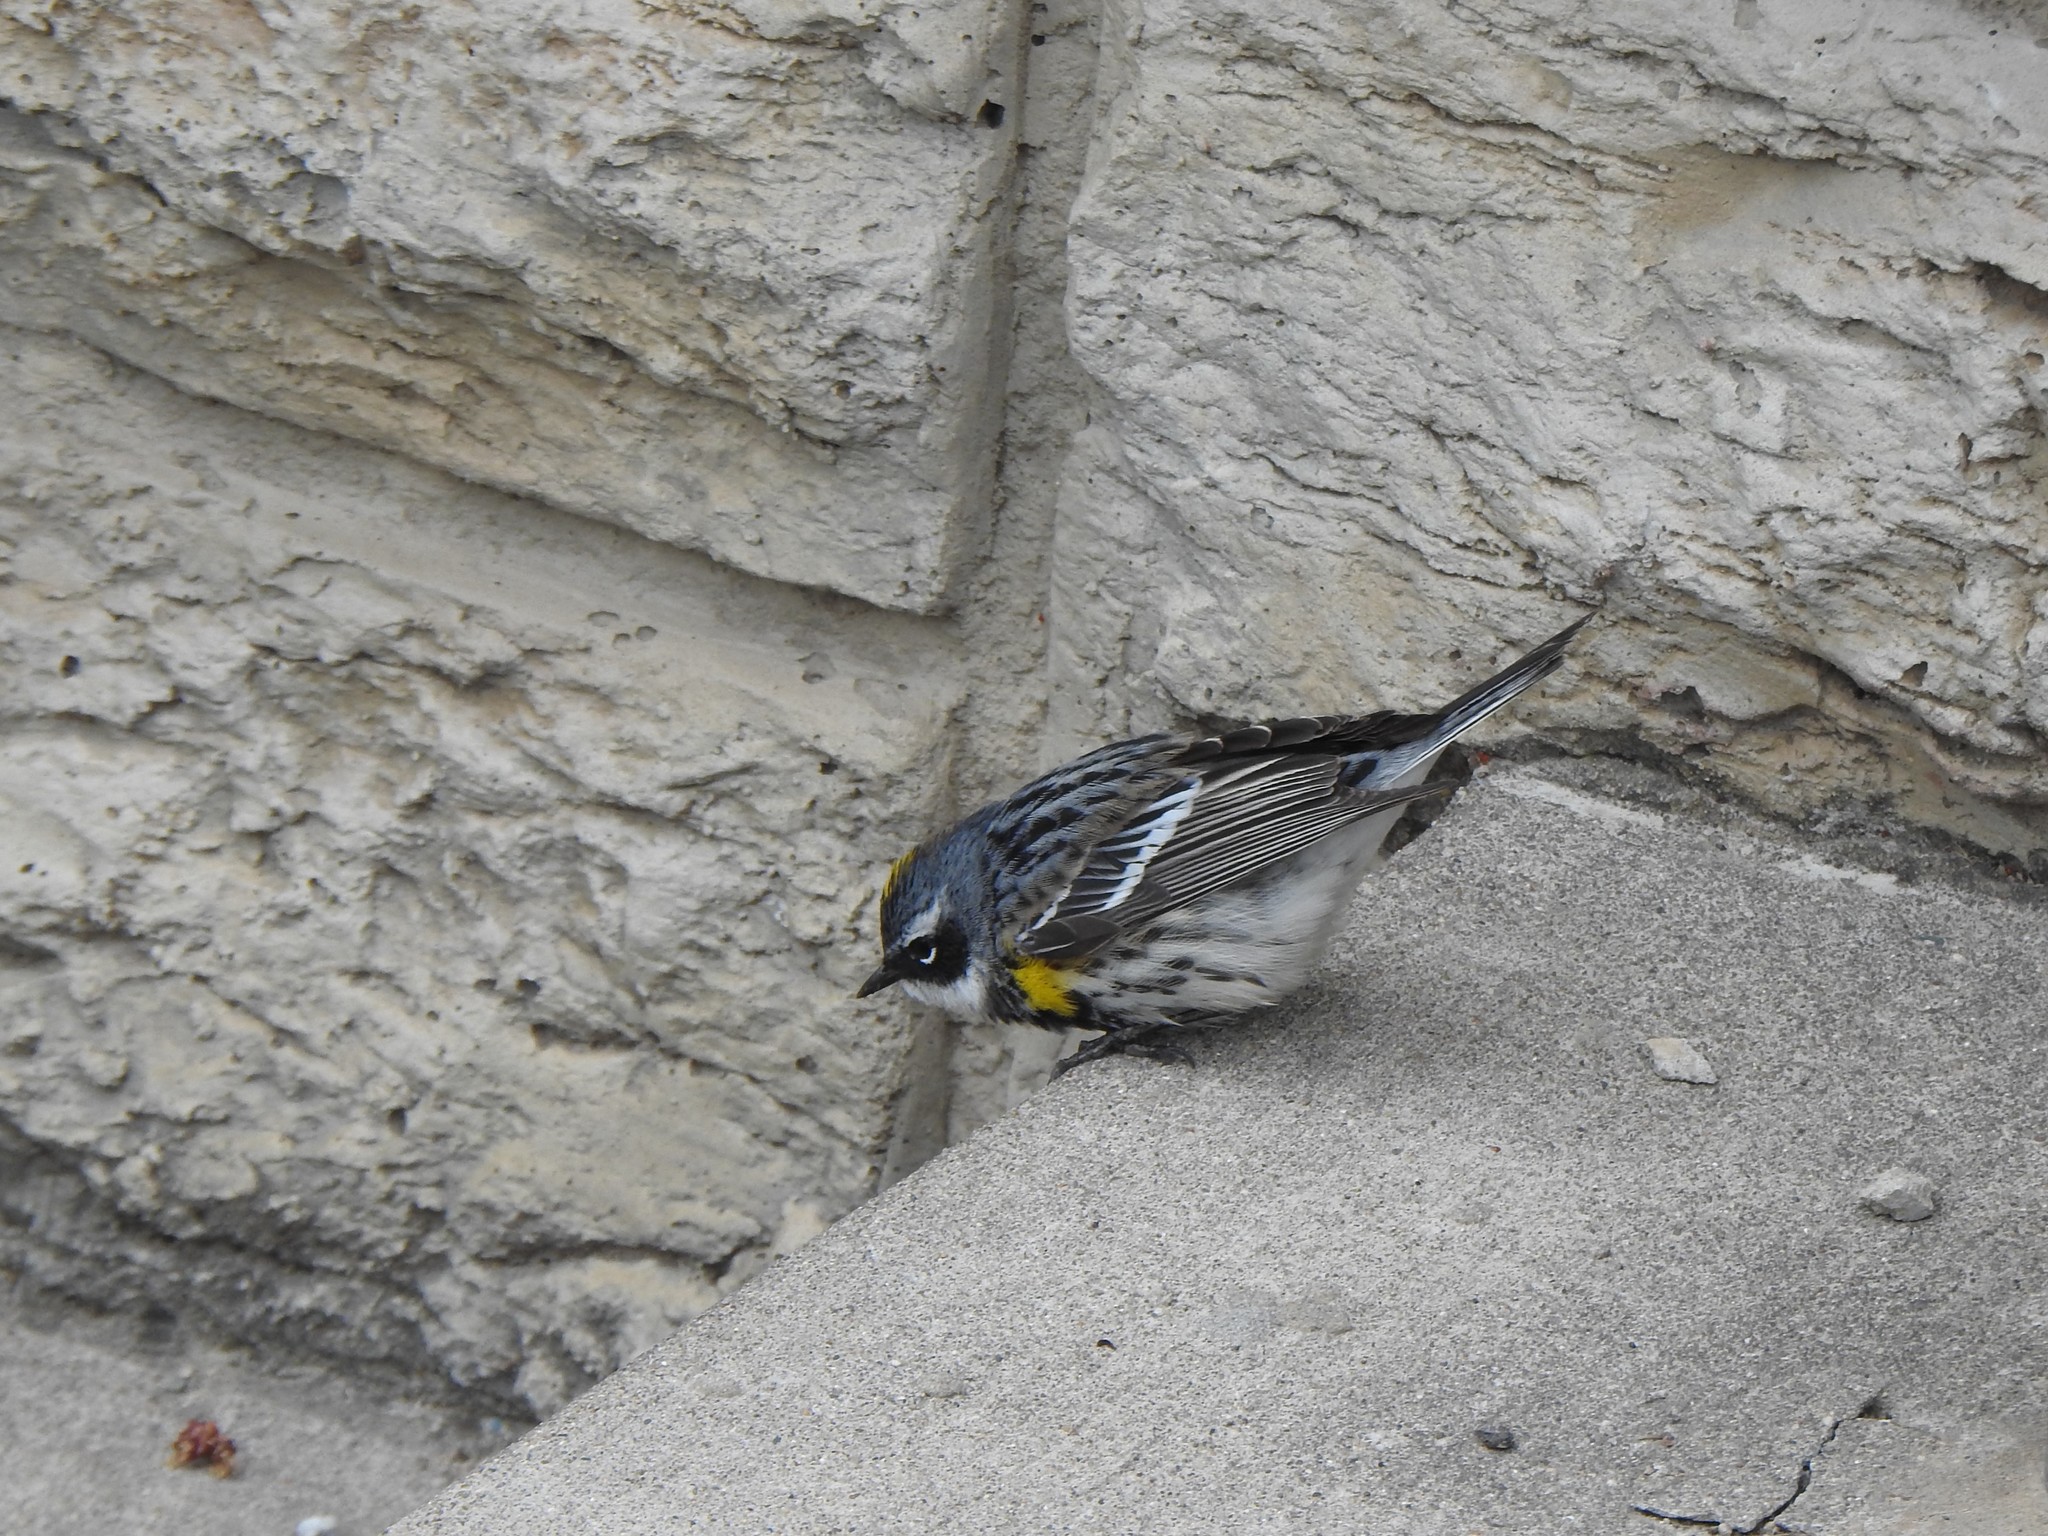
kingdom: Animalia
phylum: Chordata
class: Aves
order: Passeriformes
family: Parulidae
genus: Setophaga
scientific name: Setophaga coronata
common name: Myrtle warbler
